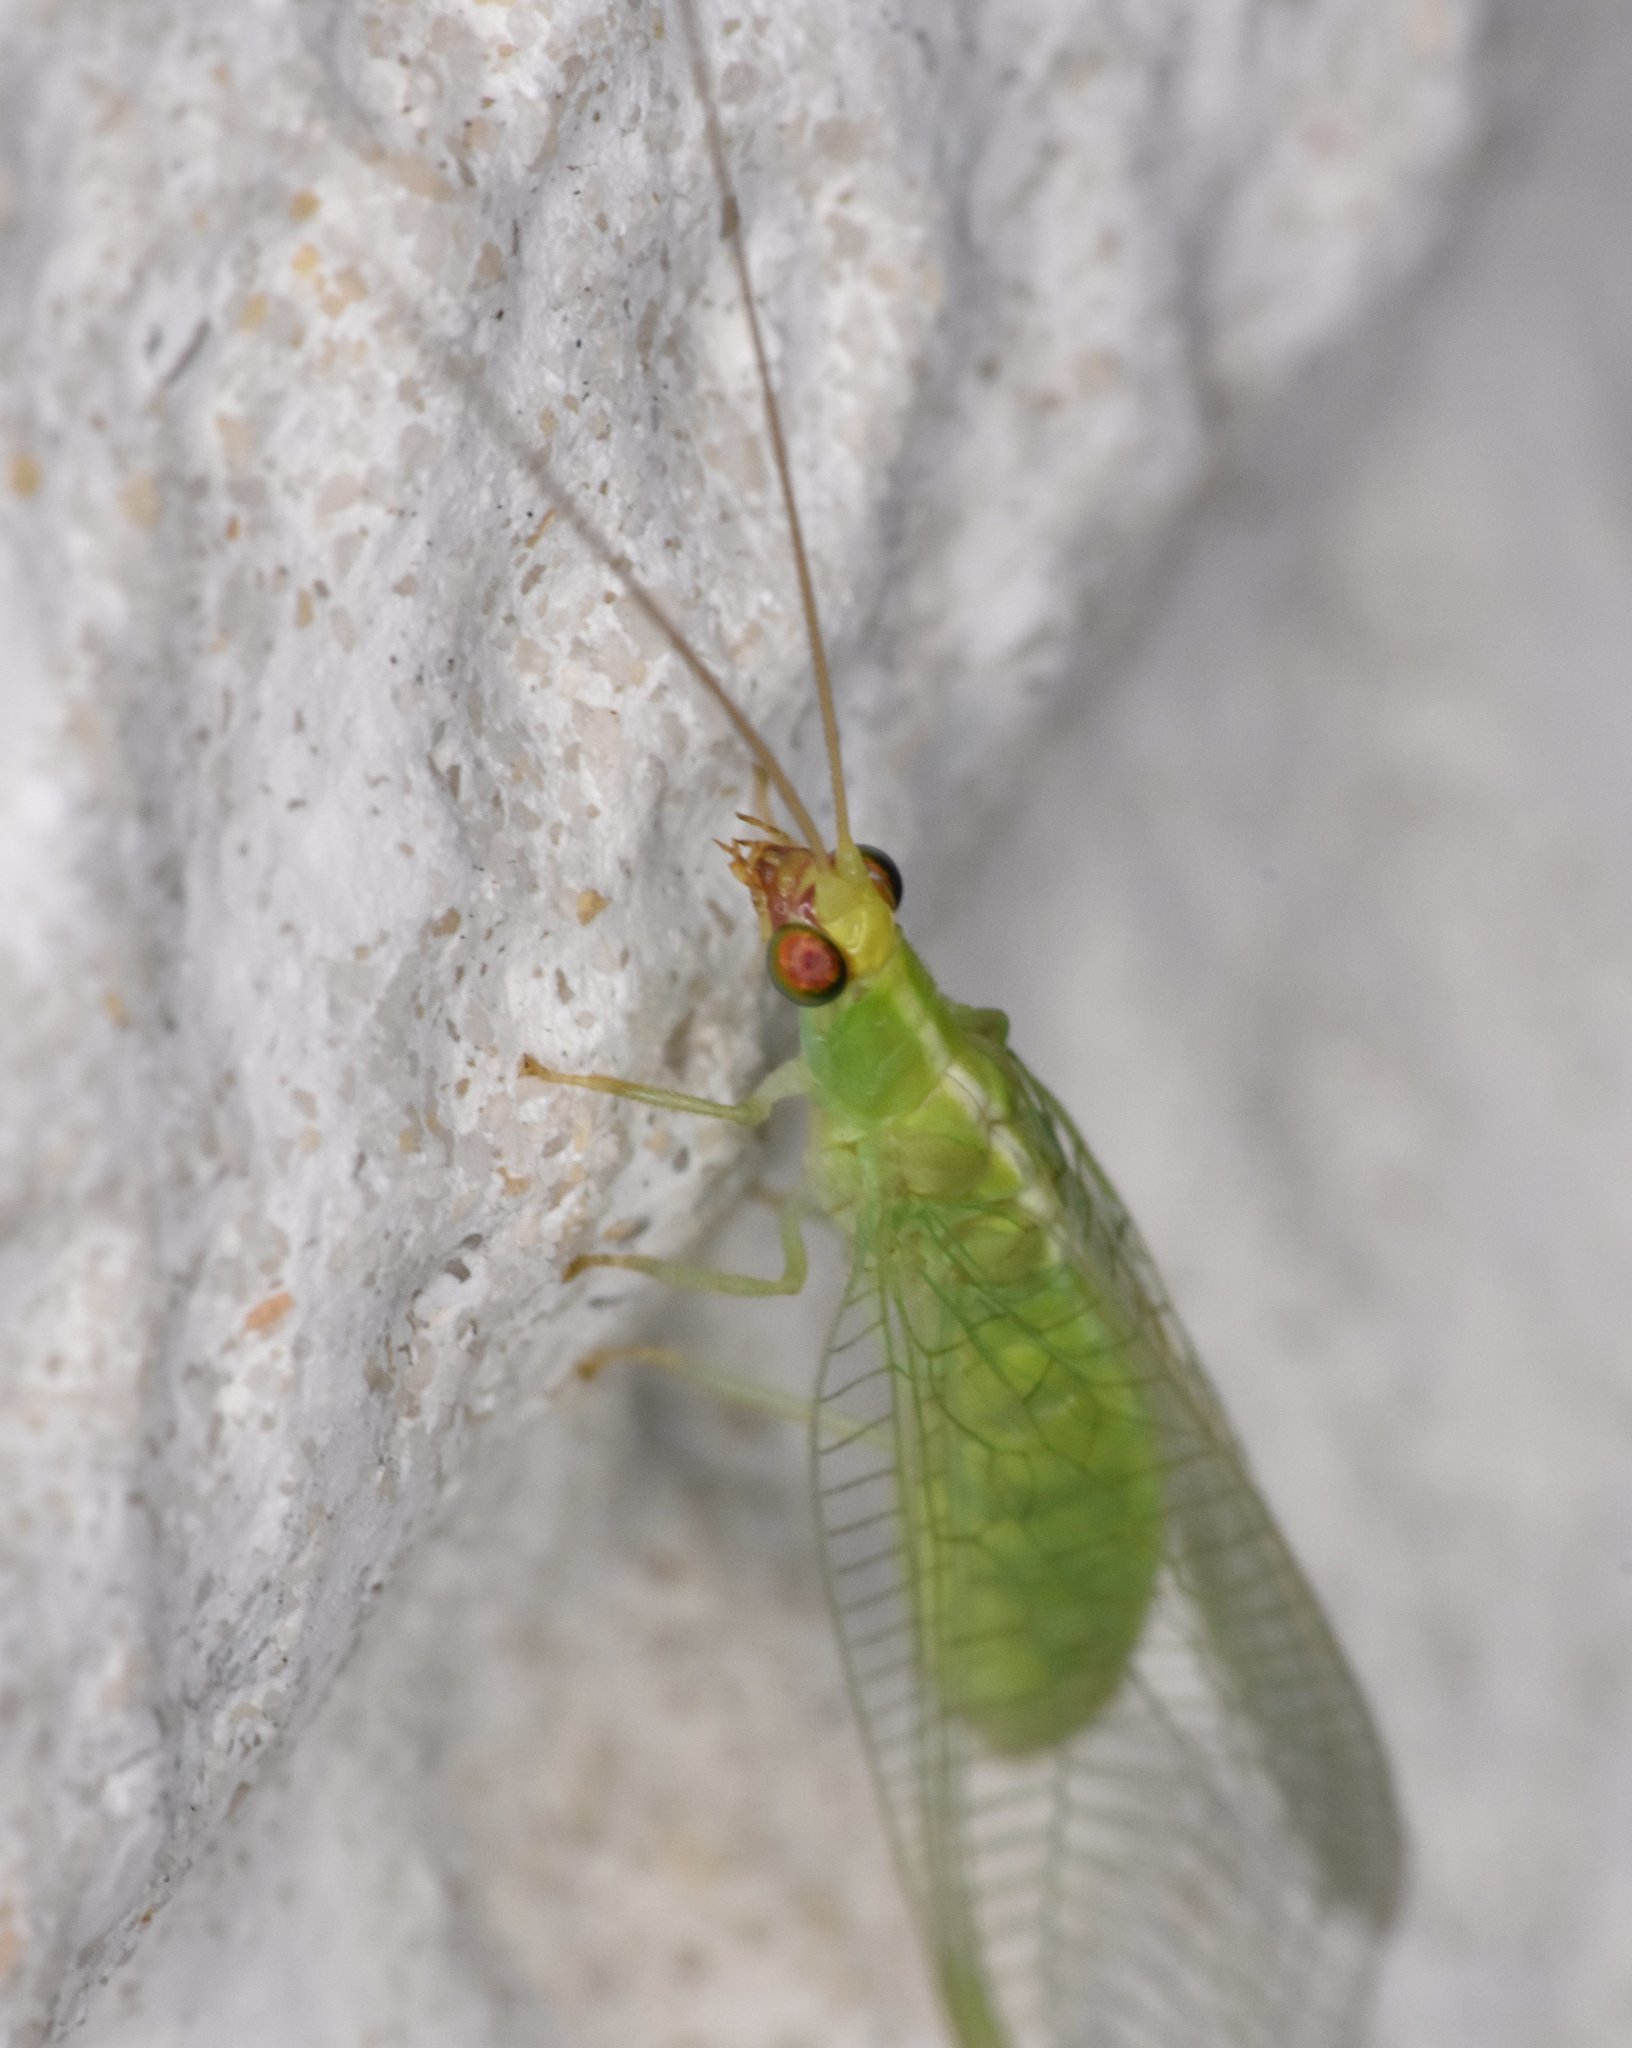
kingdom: Animalia
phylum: Arthropoda
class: Insecta
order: Neuroptera
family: Chrysopidae
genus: Chrysopodes
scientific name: Chrysopodes collaris
